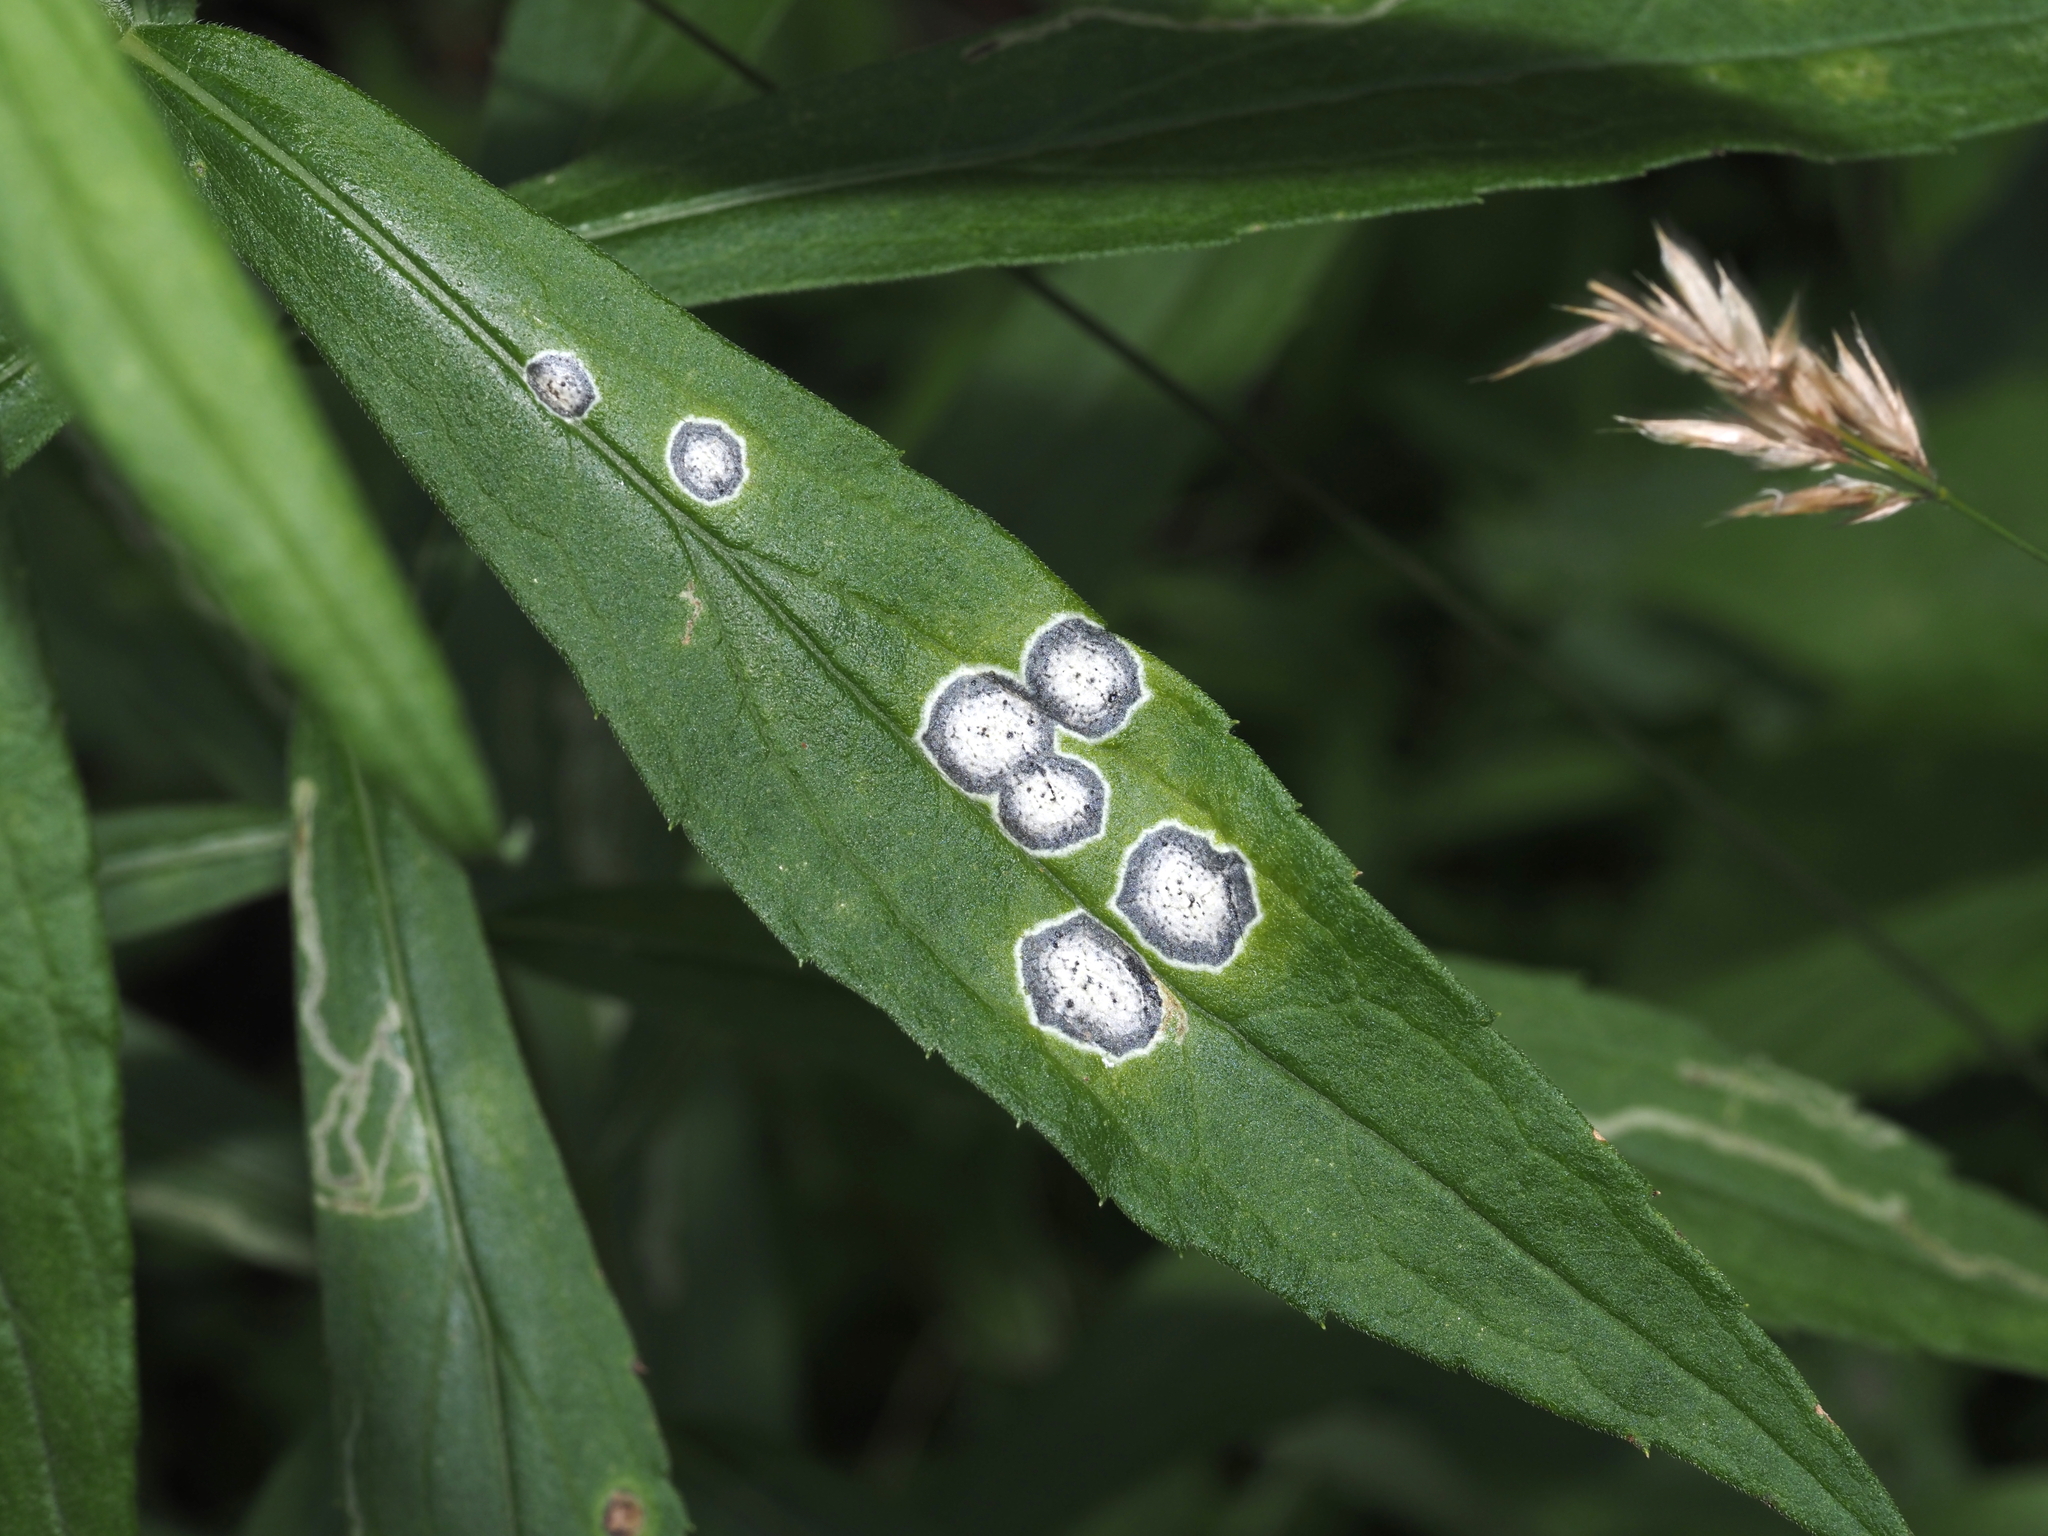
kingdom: Animalia
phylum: Arthropoda
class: Insecta
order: Diptera
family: Cecidomyiidae
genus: Asteromyia
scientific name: Asteromyia carbonifera
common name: Carbonifera goldenrod gall midge
